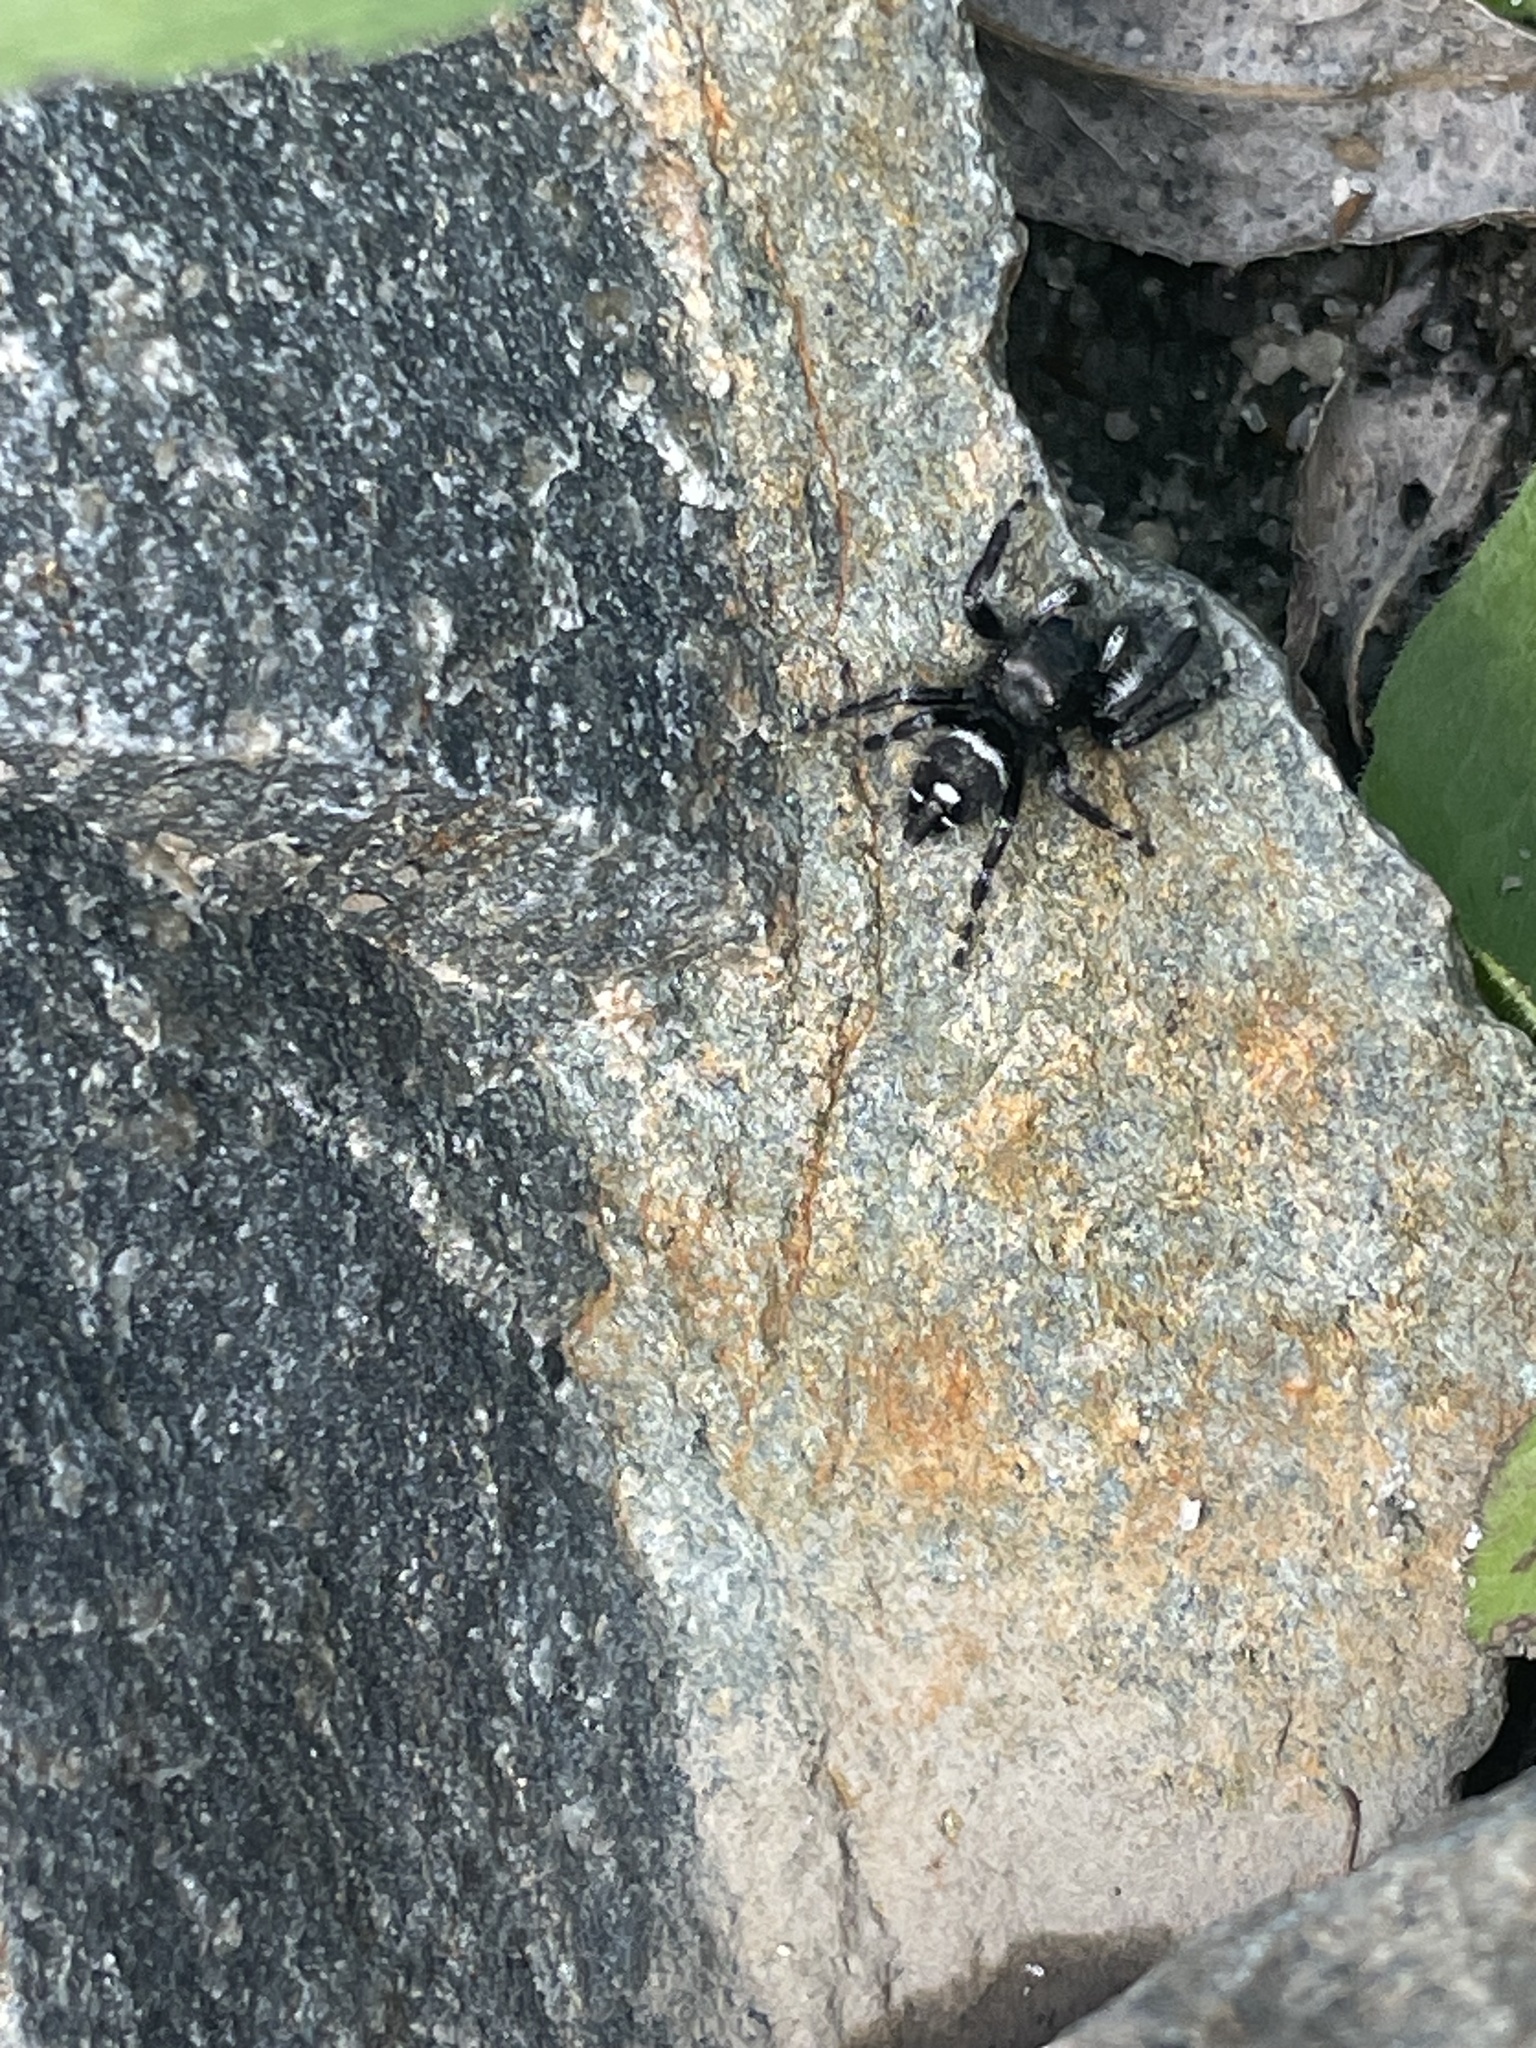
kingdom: Animalia
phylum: Arthropoda
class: Arachnida
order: Araneae
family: Salticidae
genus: Phidippus
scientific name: Phidippus audax
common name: Bold jumper
